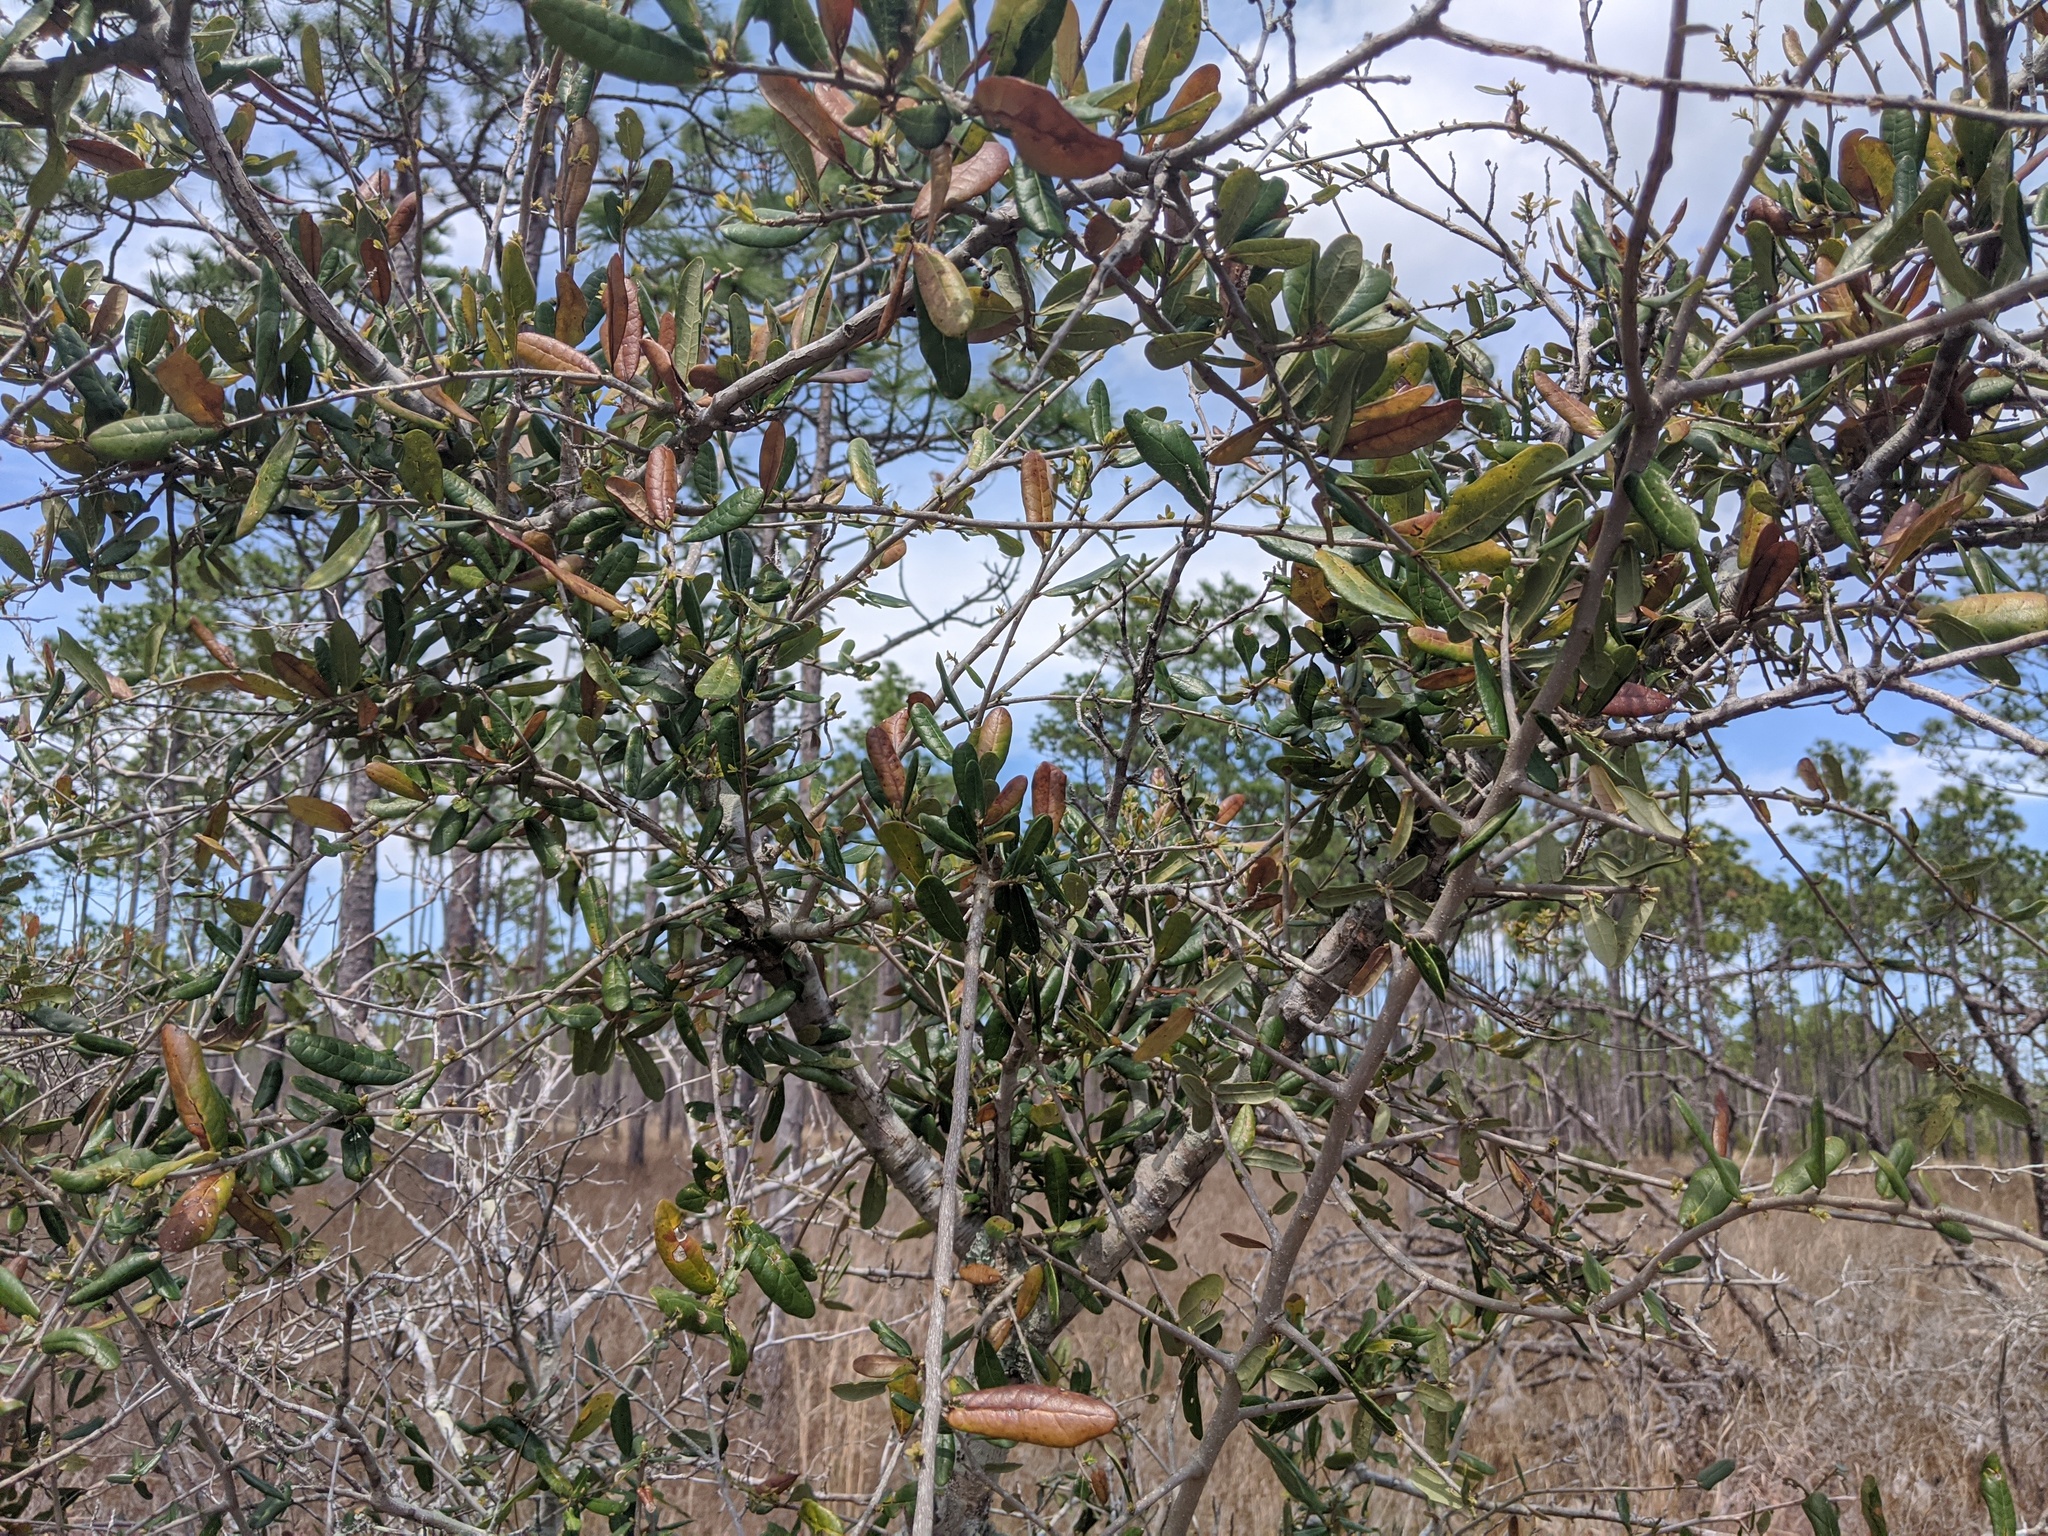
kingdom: Plantae
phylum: Tracheophyta
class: Magnoliopsida
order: Fagales
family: Fagaceae
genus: Quercus
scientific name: Quercus geminata
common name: Sand live oak
